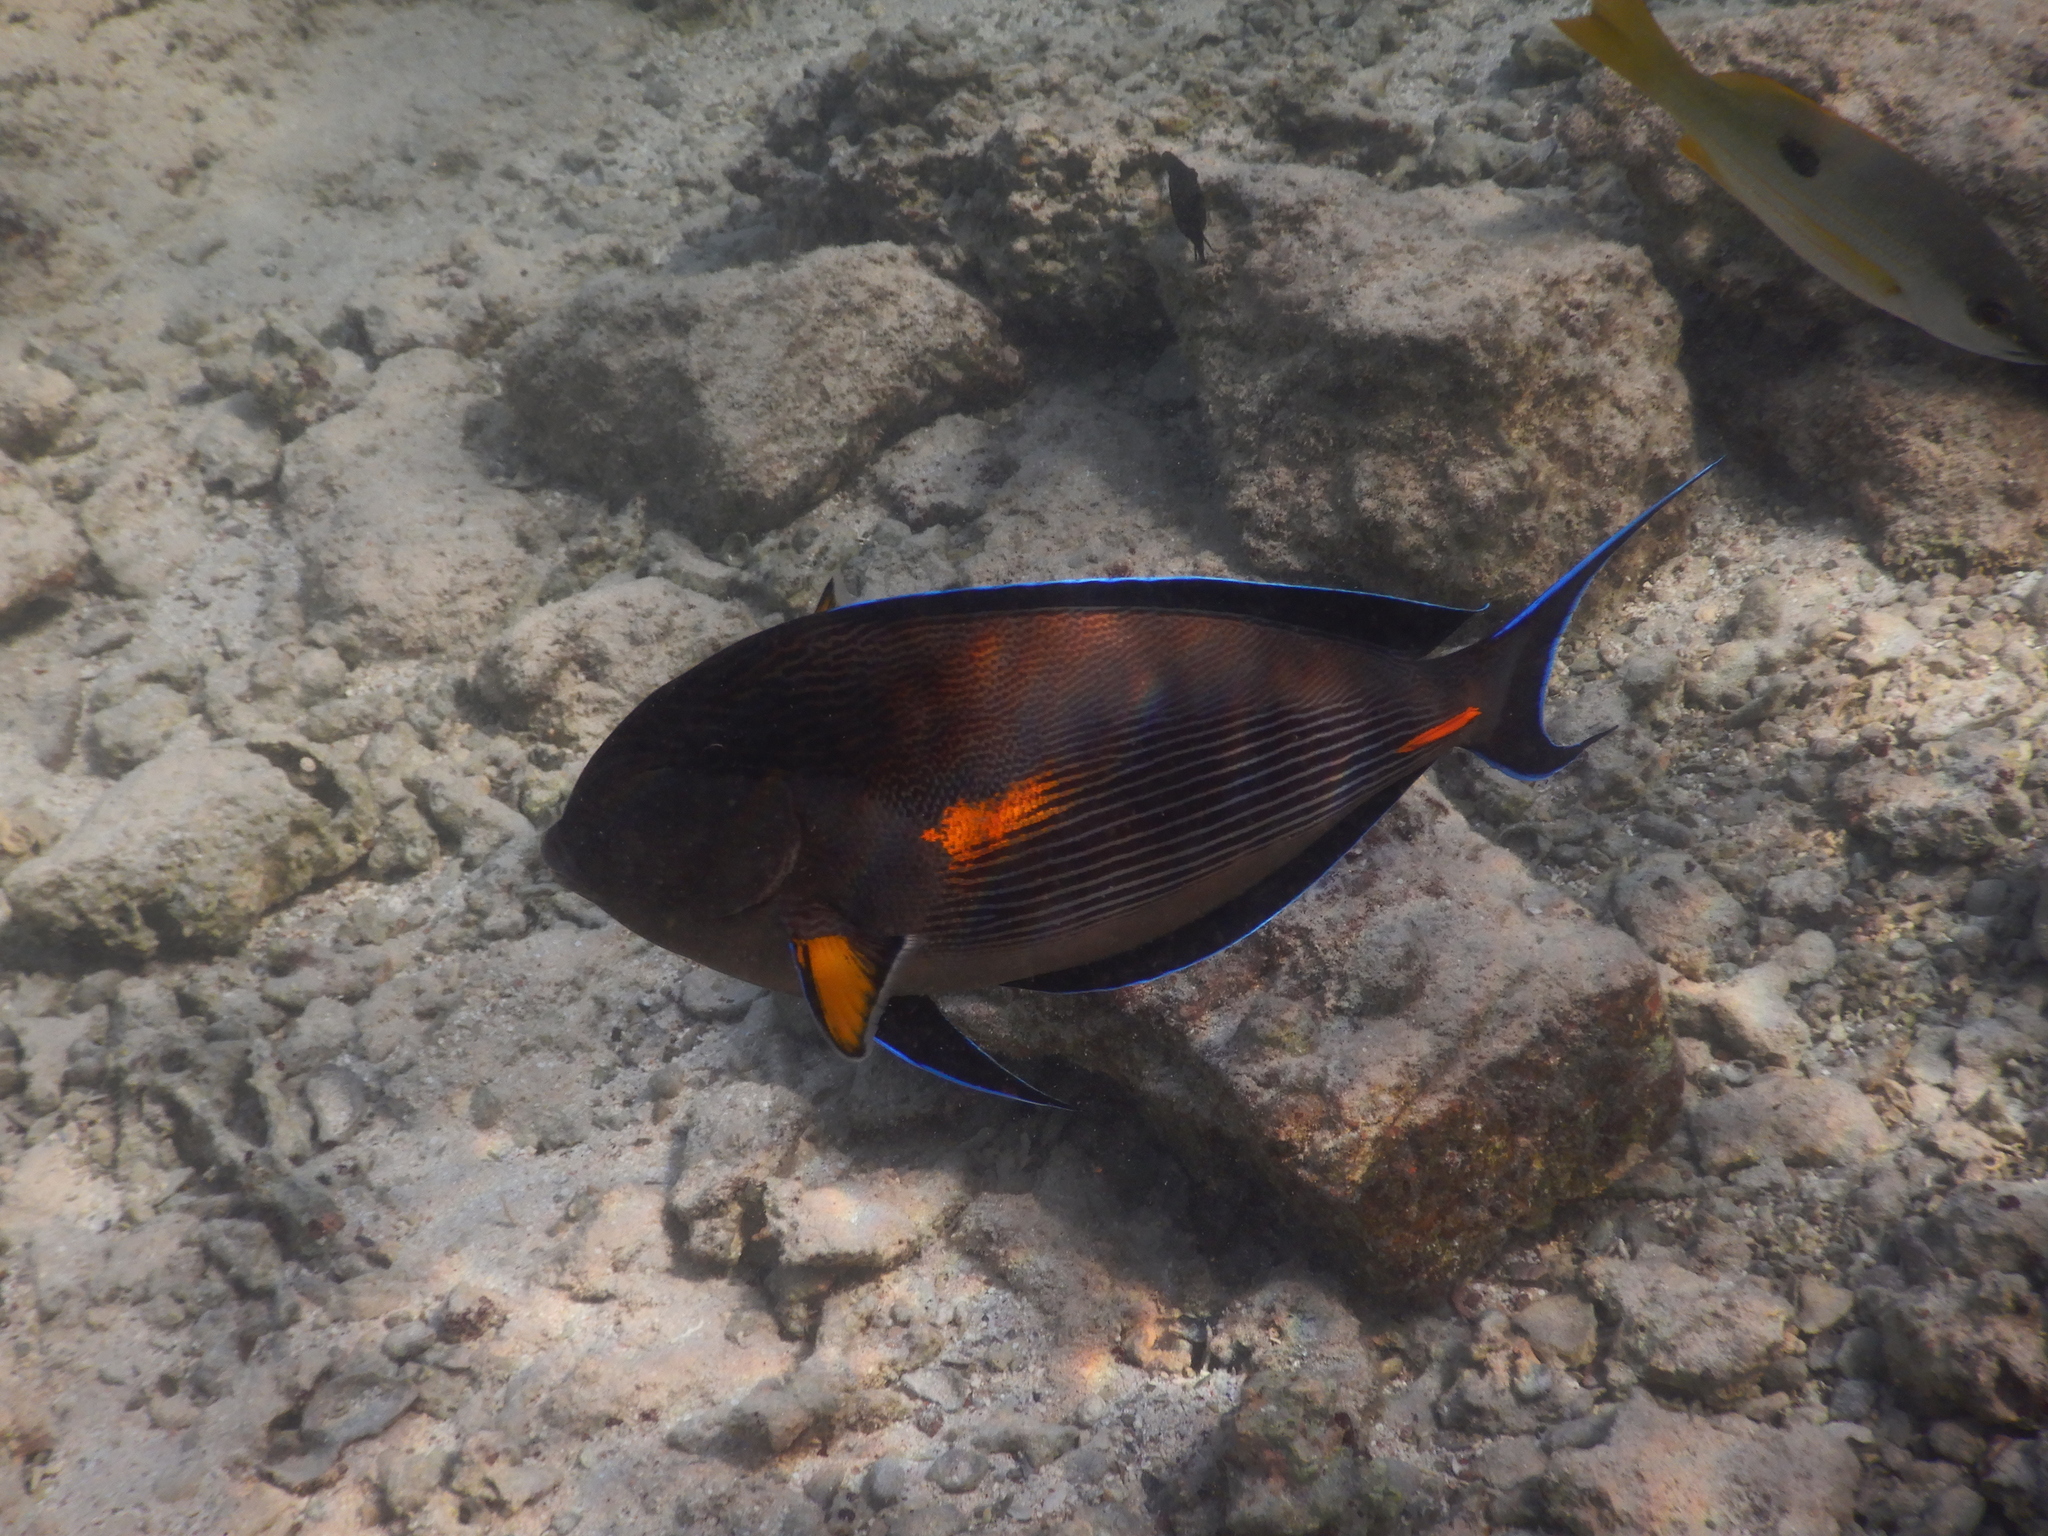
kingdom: Animalia
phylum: Chordata
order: Perciformes
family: Acanthuridae
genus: Acanthurus
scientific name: Acanthurus sohal
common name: Red sea surgeonfish
